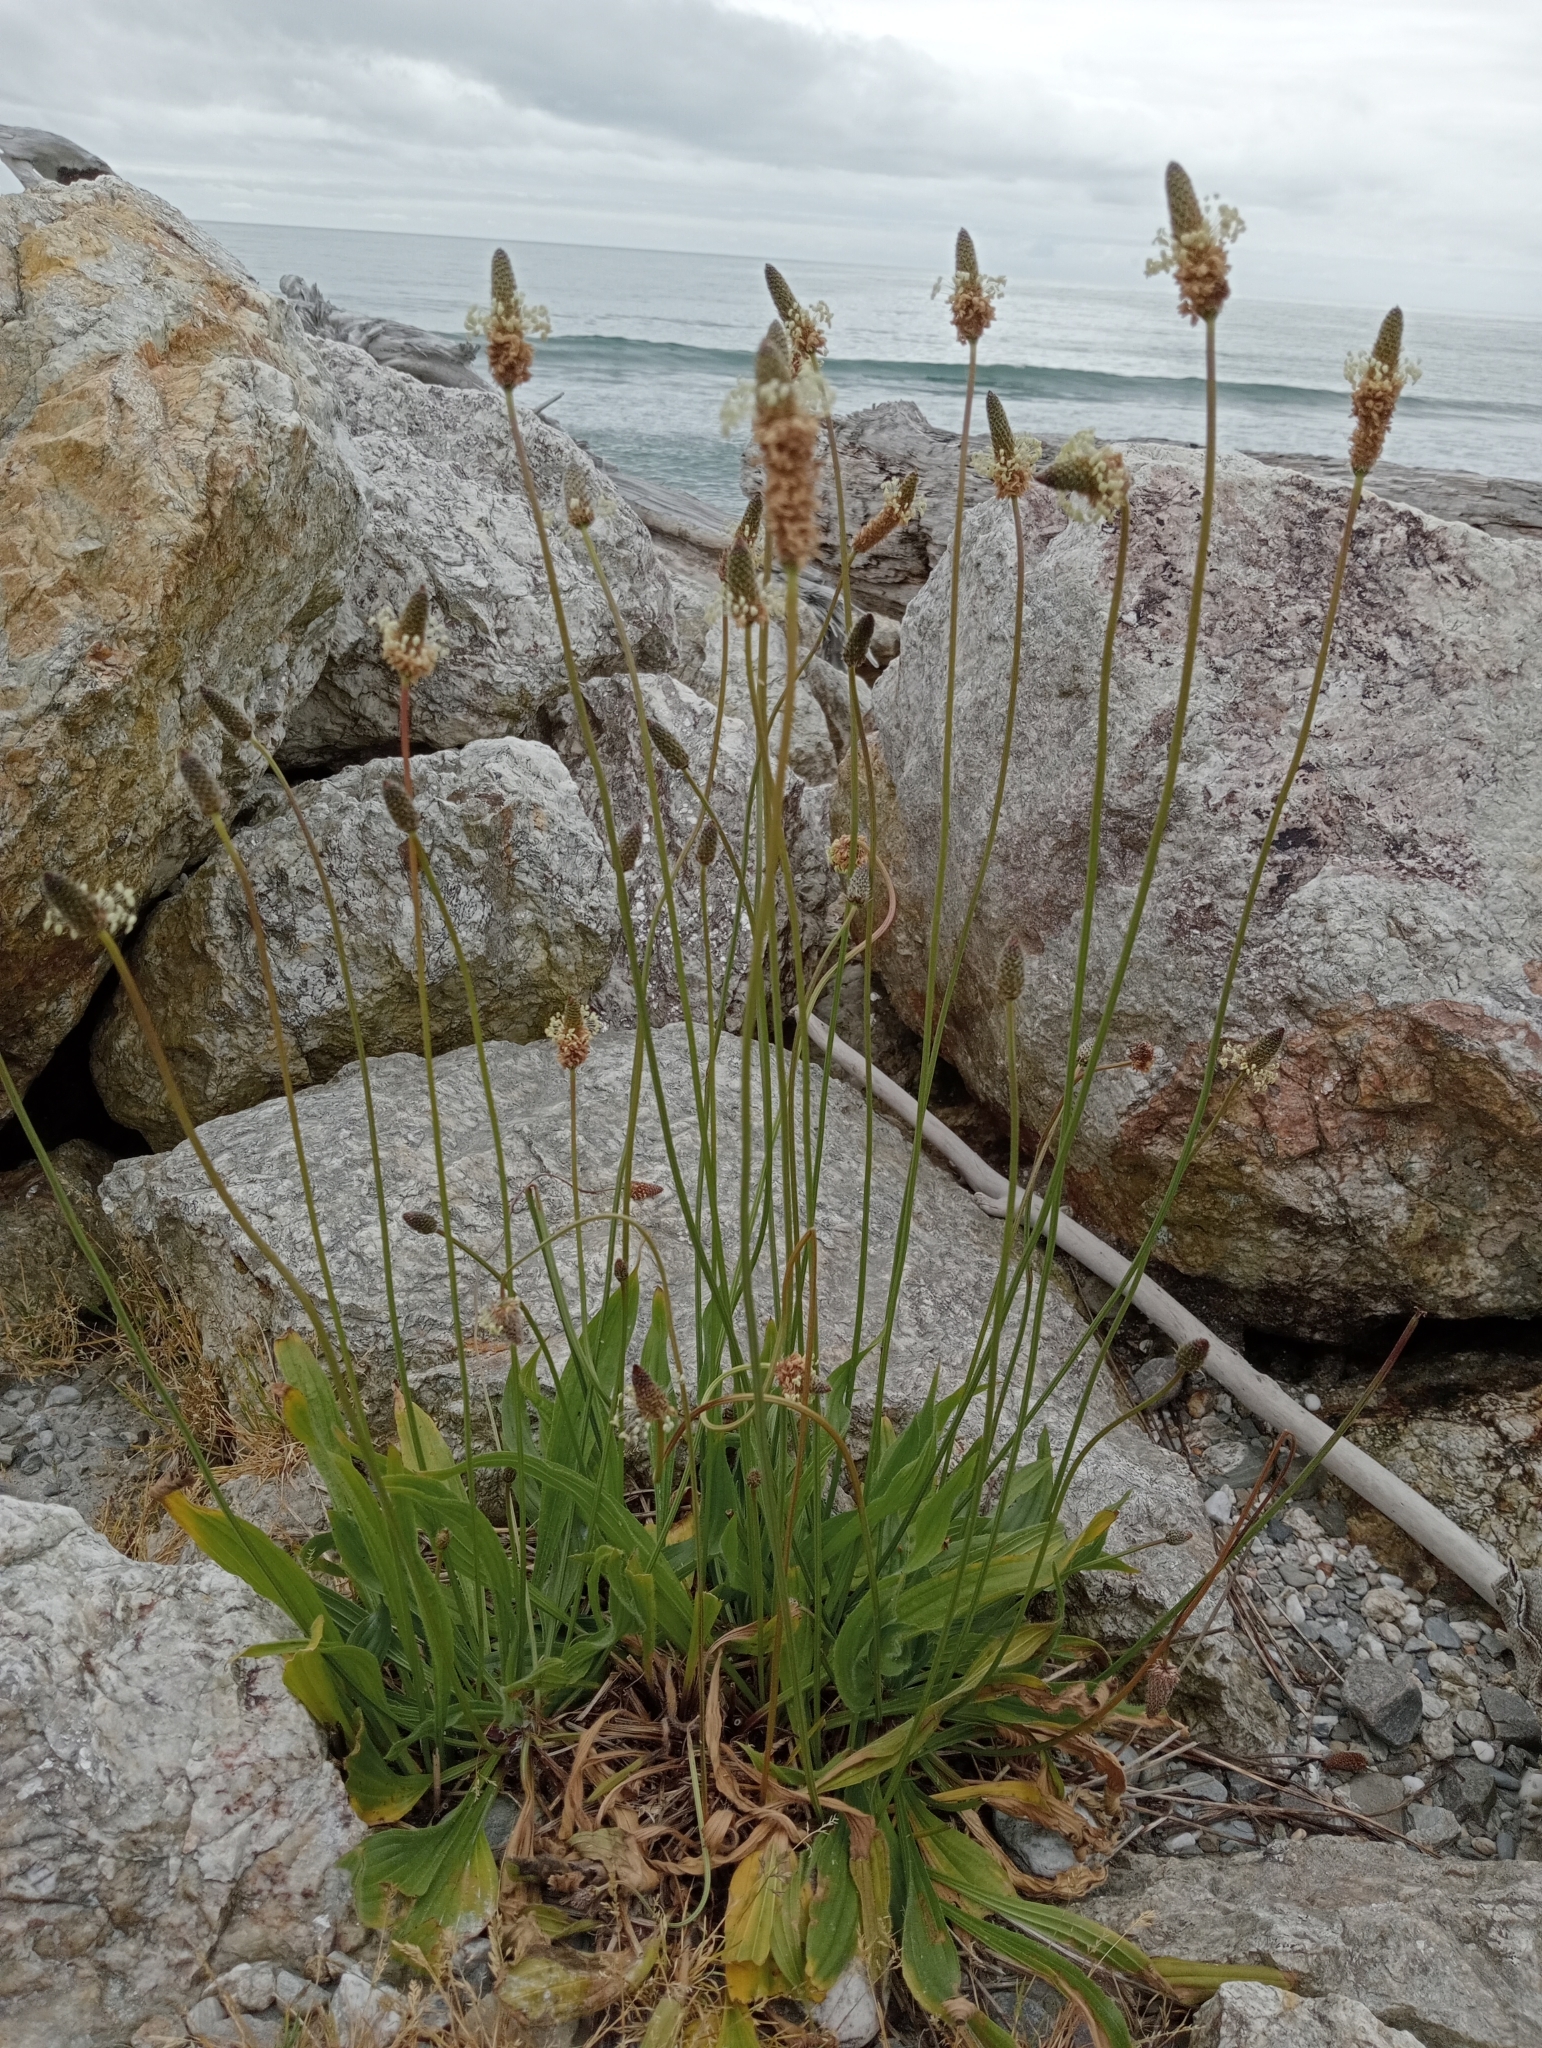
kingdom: Plantae
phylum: Tracheophyta
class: Magnoliopsida
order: Lamiales
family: Plantaginaceae
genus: Plantago
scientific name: Plantago lanceolata
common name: Ribwort plantain
